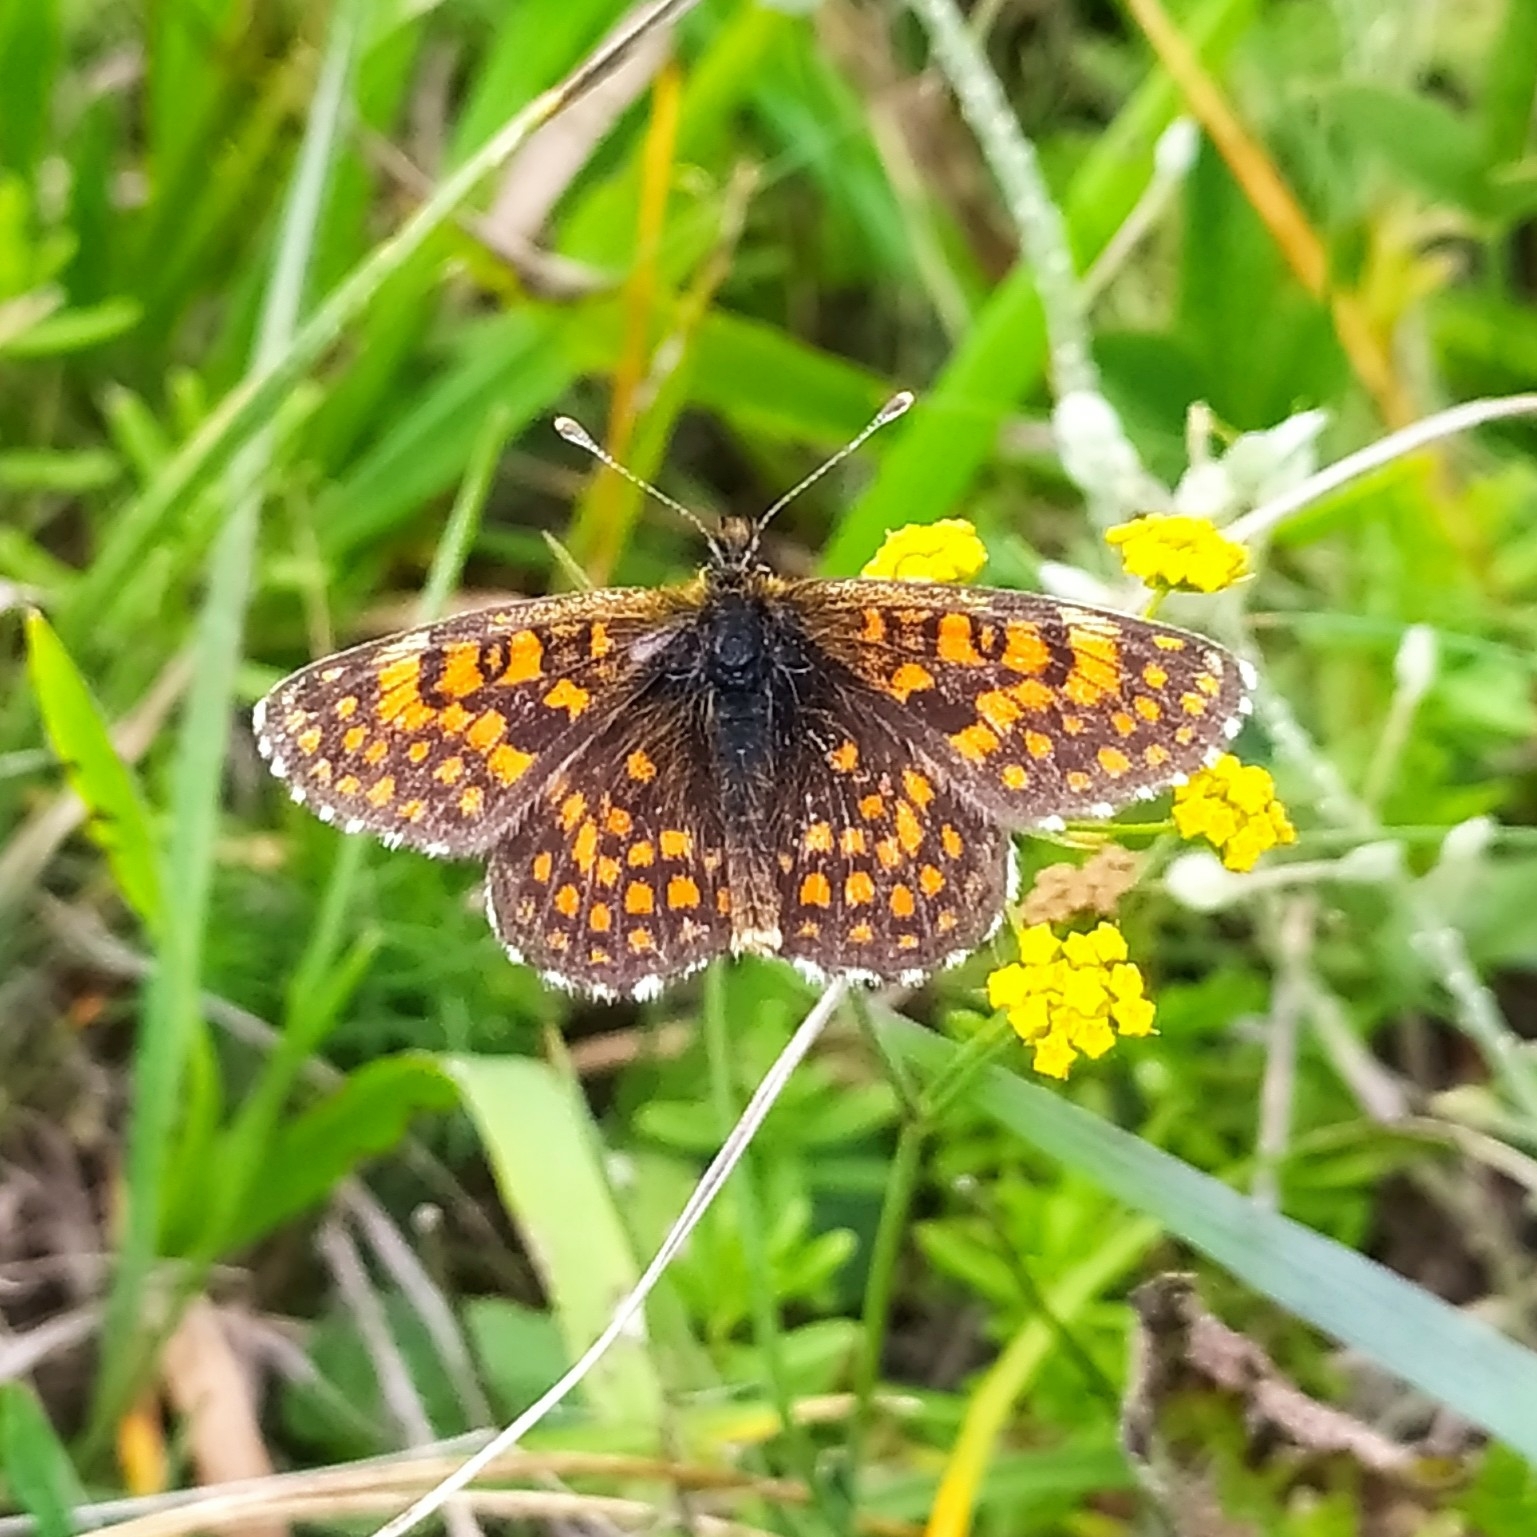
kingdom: Animalia
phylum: Arthropoda
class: Insecta
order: Lepidoptera
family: Nymphalidae
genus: Mellicta
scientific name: Mellicta aurelia
